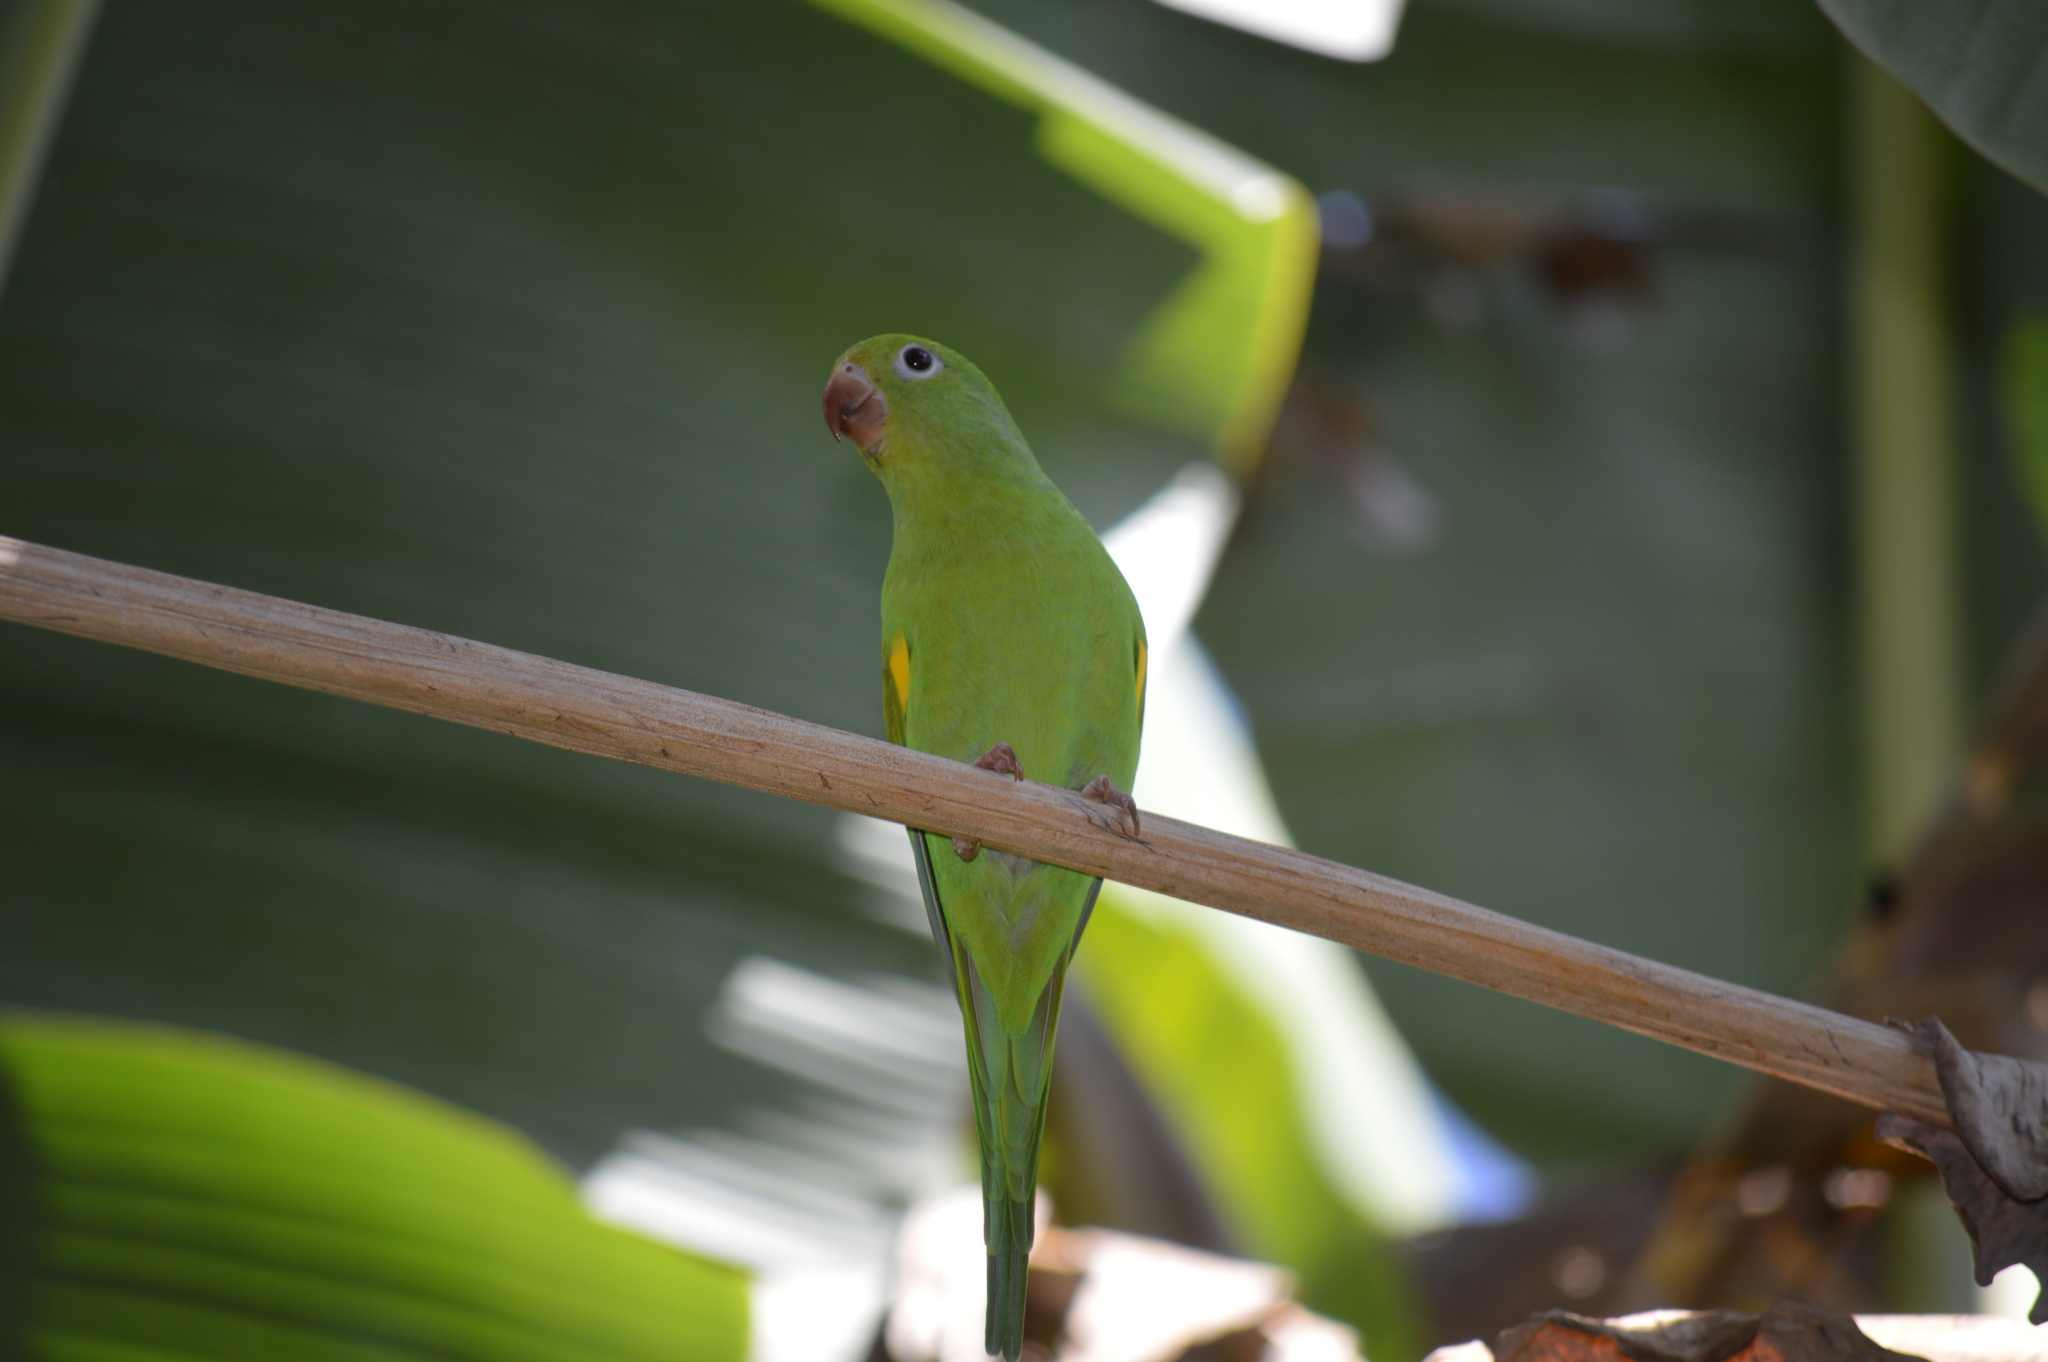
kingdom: Animalia
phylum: Chordata
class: Aves
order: Psittaciformes
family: Psittacidae
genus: Brotogeris
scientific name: Brotogeris chiriri
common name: Yellow-chevroned parakeet
